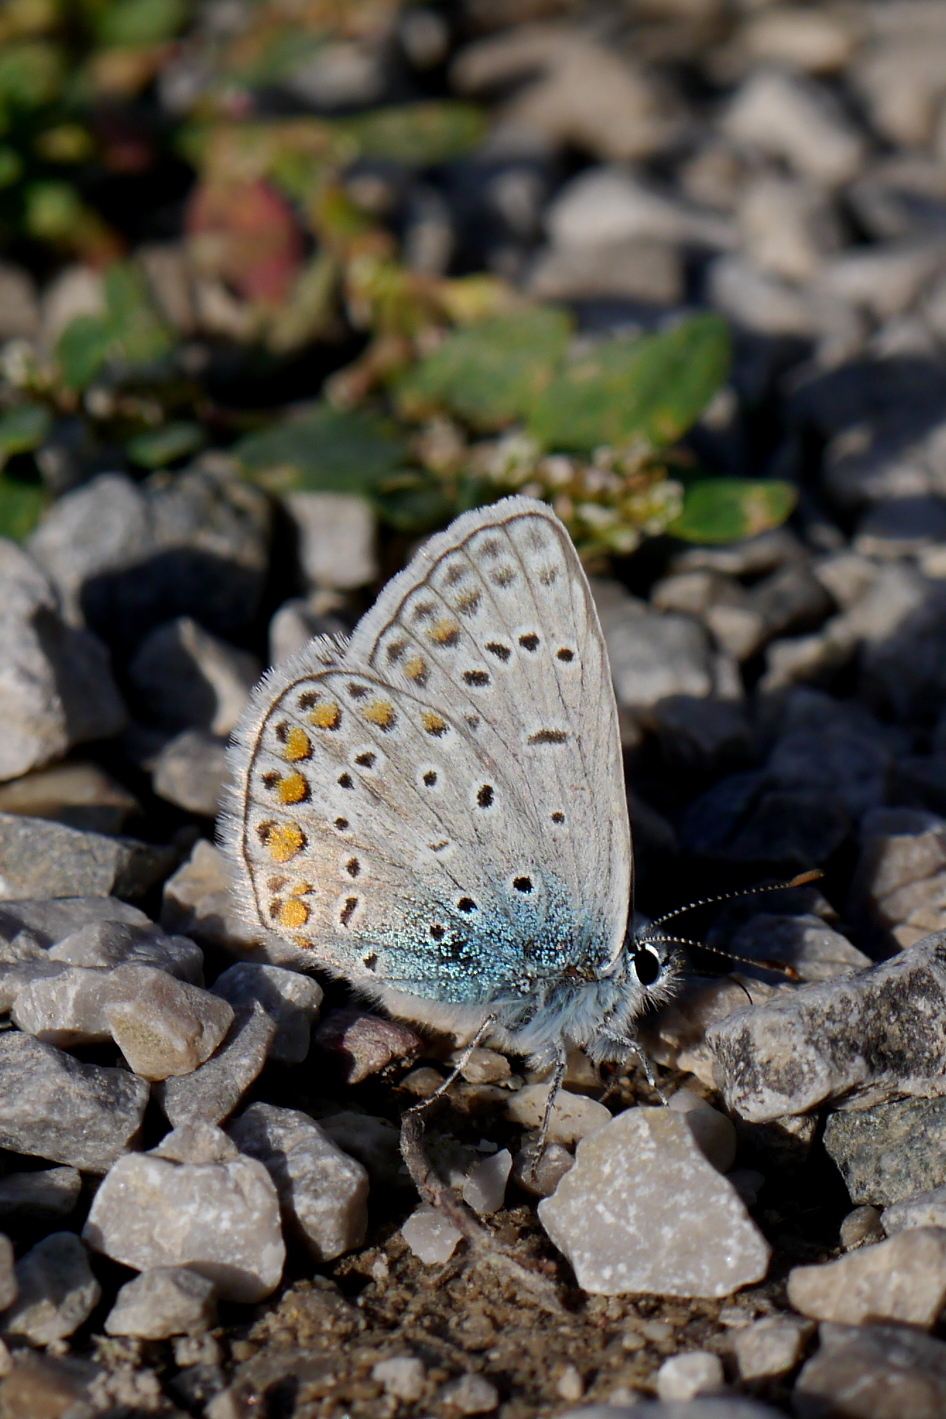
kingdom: Animalia
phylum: Arthropoda
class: Insecta
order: Lepidoptera
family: Lycaenidae
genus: Polyommatus
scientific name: Polyommatus icarus
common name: Common blue
